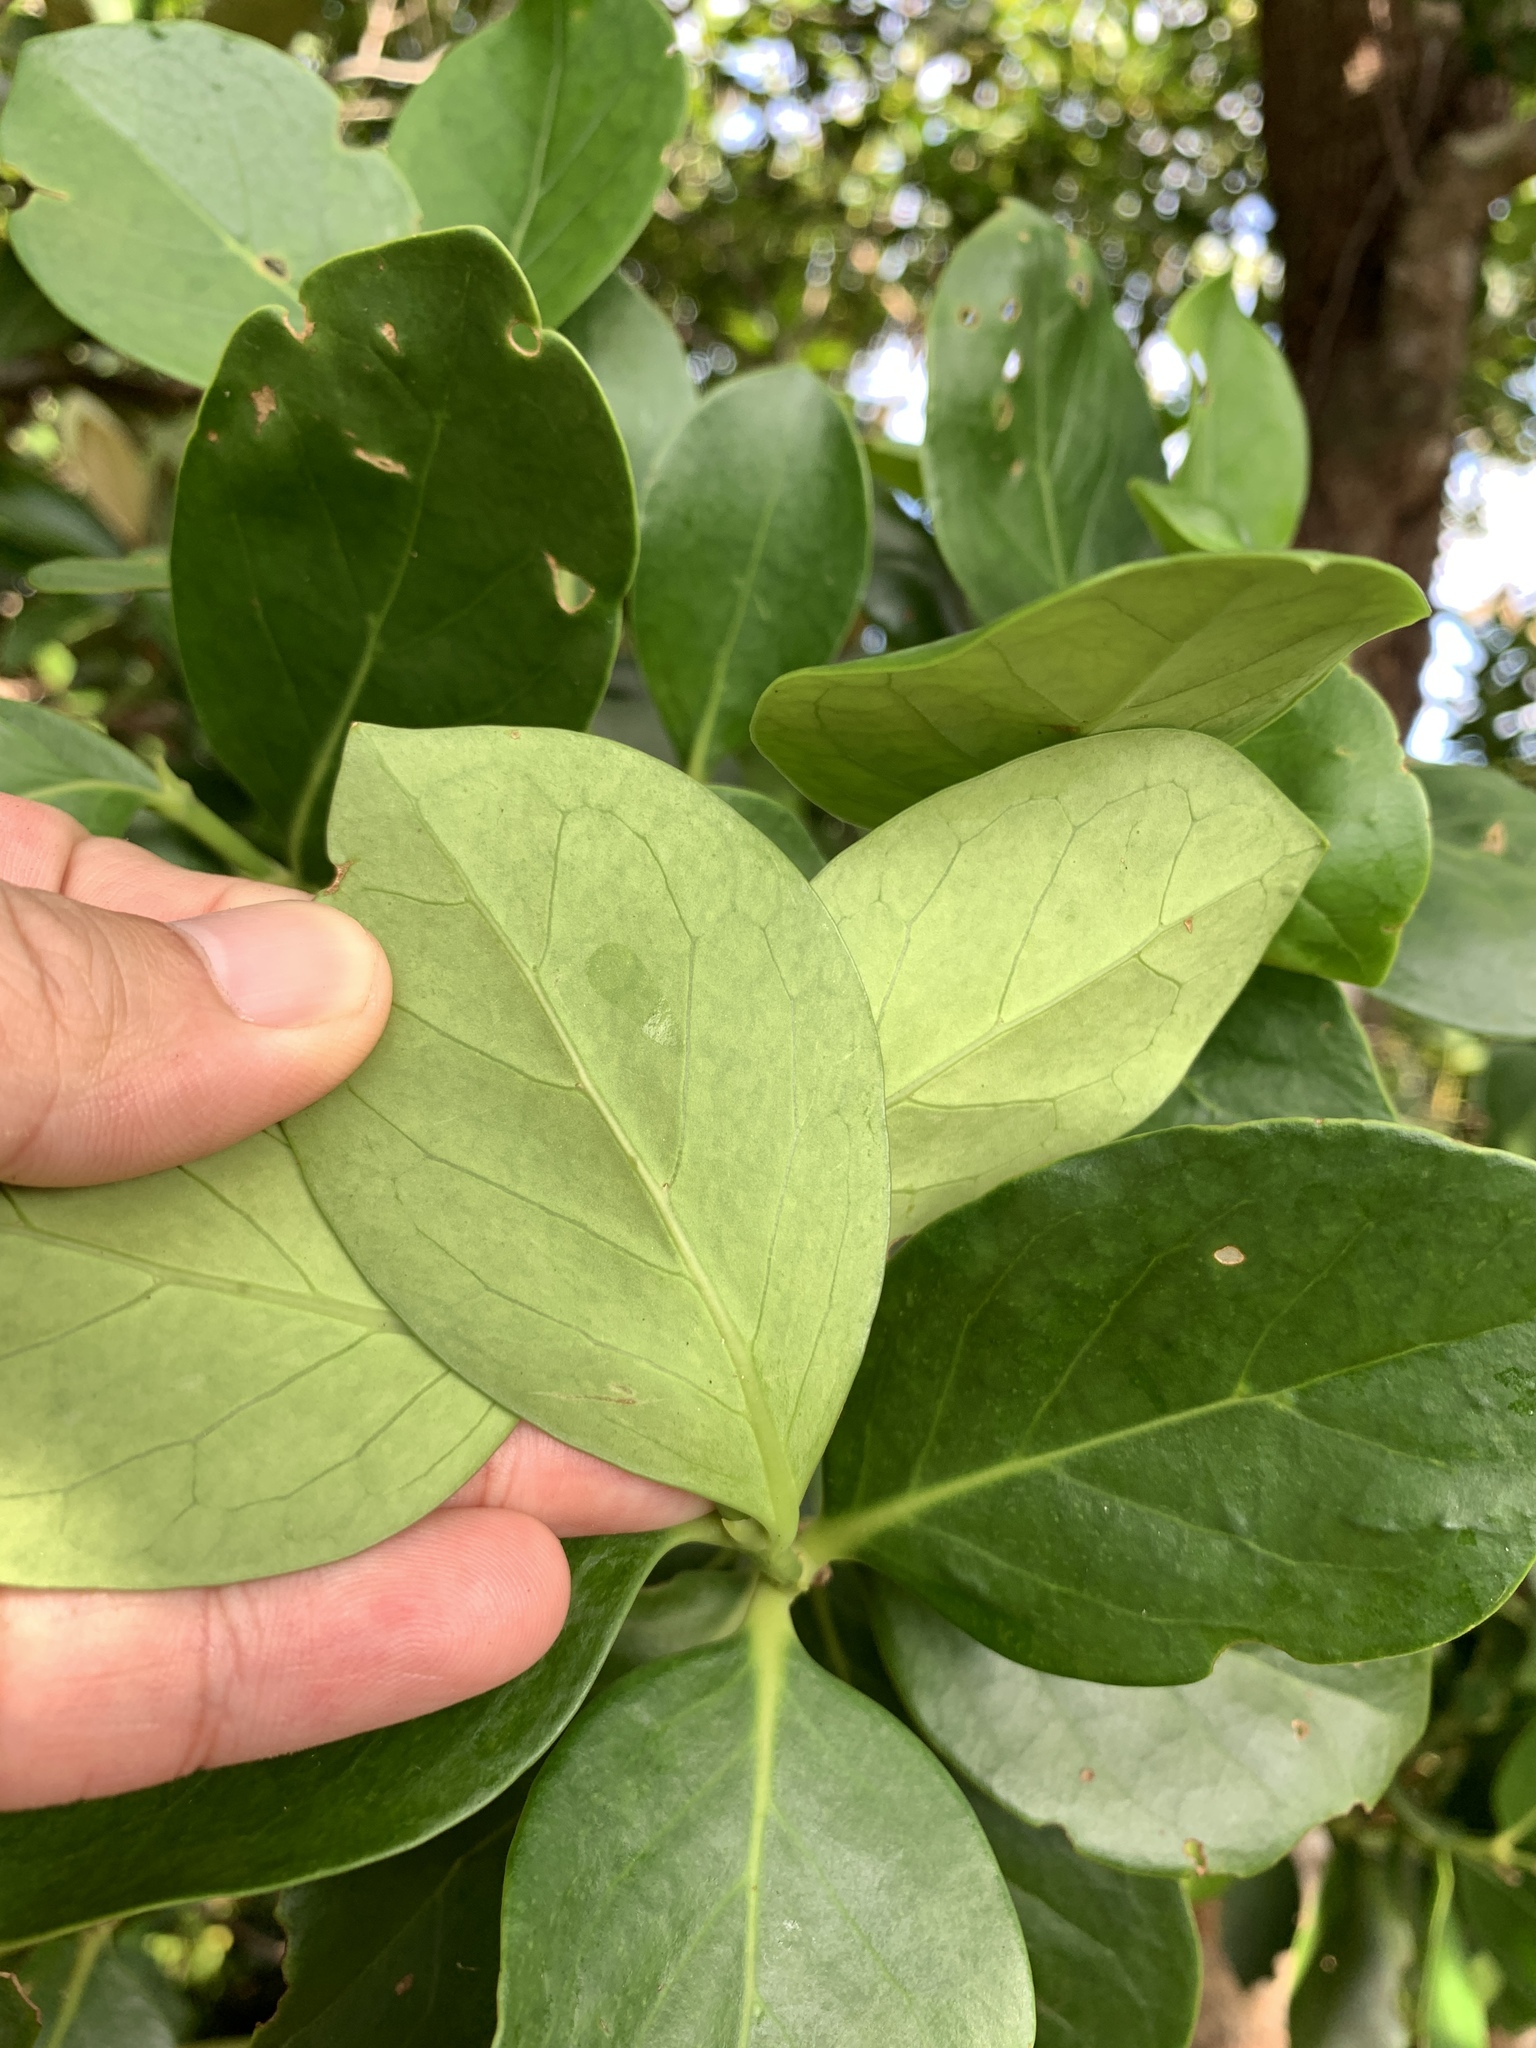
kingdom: Plantae
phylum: Tracheophyta
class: Magnoliopsida
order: Gentianales
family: Rubiaceae
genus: Psydrax
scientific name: Psydrax gynochthodes
